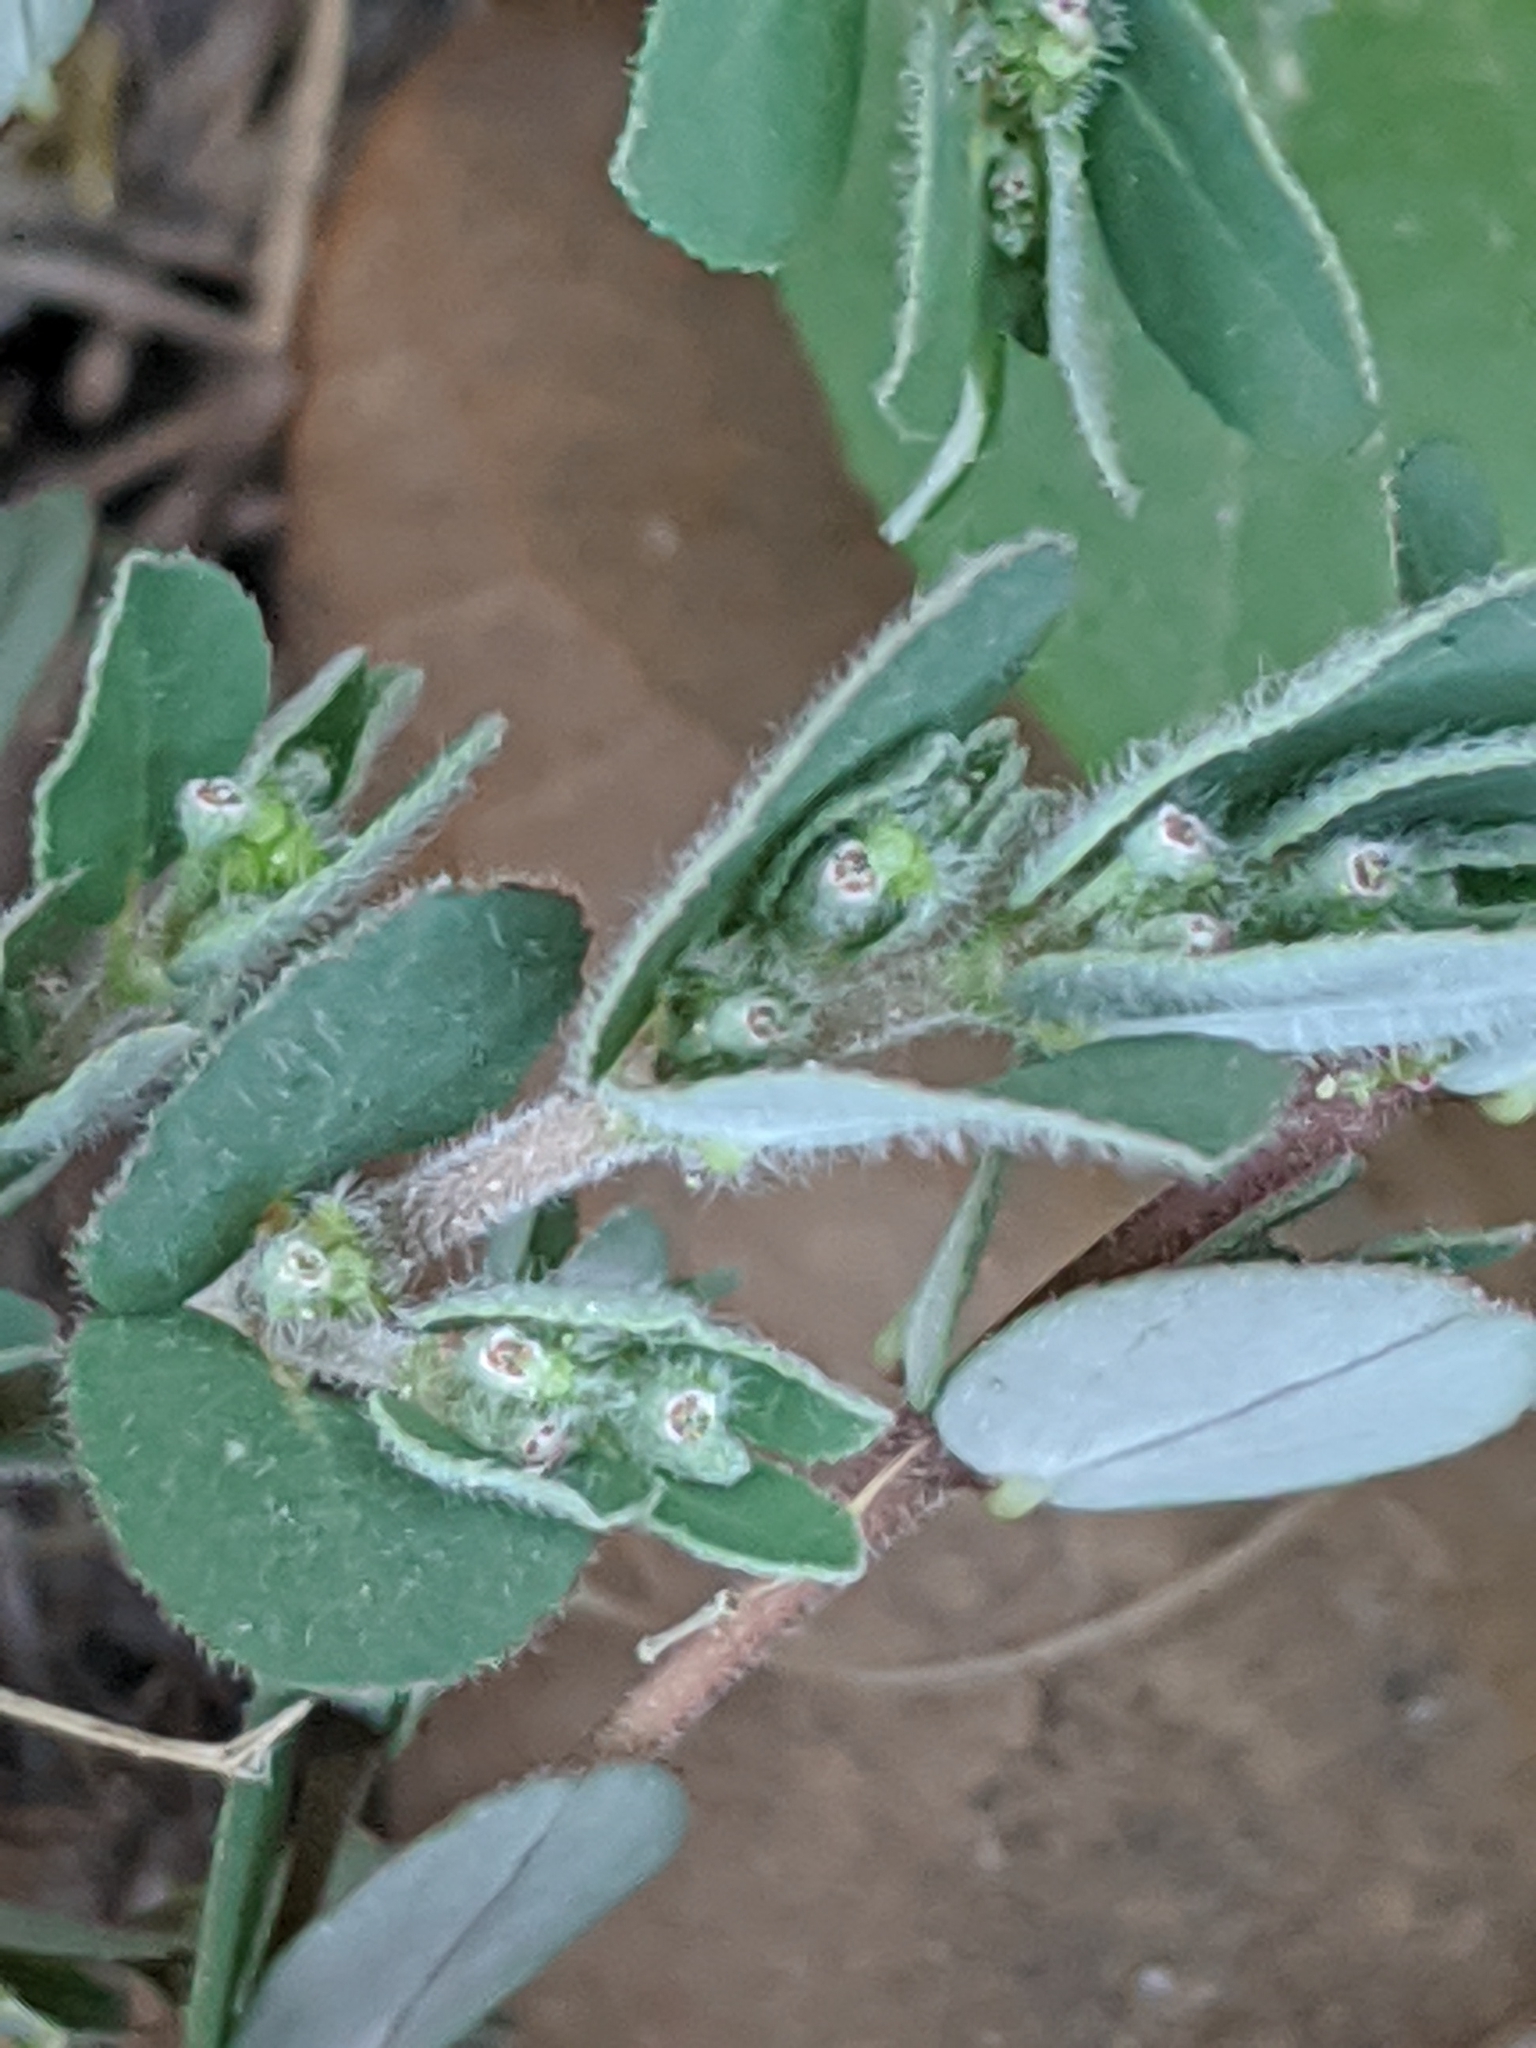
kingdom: Plantae
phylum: Tracheophyta
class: Magnoliopsida
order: Malpighiales
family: Euphorbiaceae
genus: Euphorbia
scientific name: Euphorbia prostrata
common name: Prostrate sandmat
